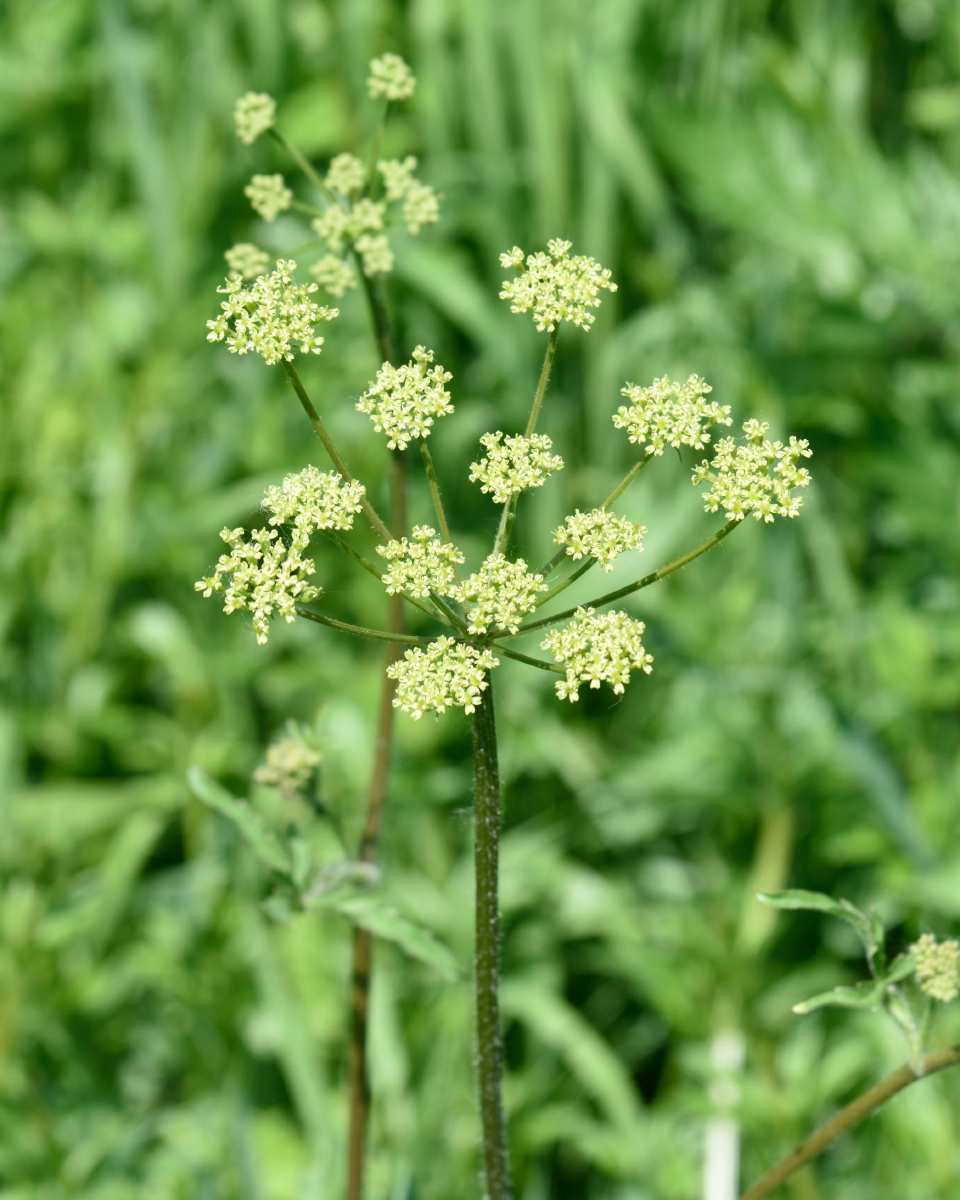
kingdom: Plantae
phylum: Tracheophyta
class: Magnoliopsida
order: Apiales
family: Apiaceae
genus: Heracleum
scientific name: Heracleum sphondylium
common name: Hogweed
